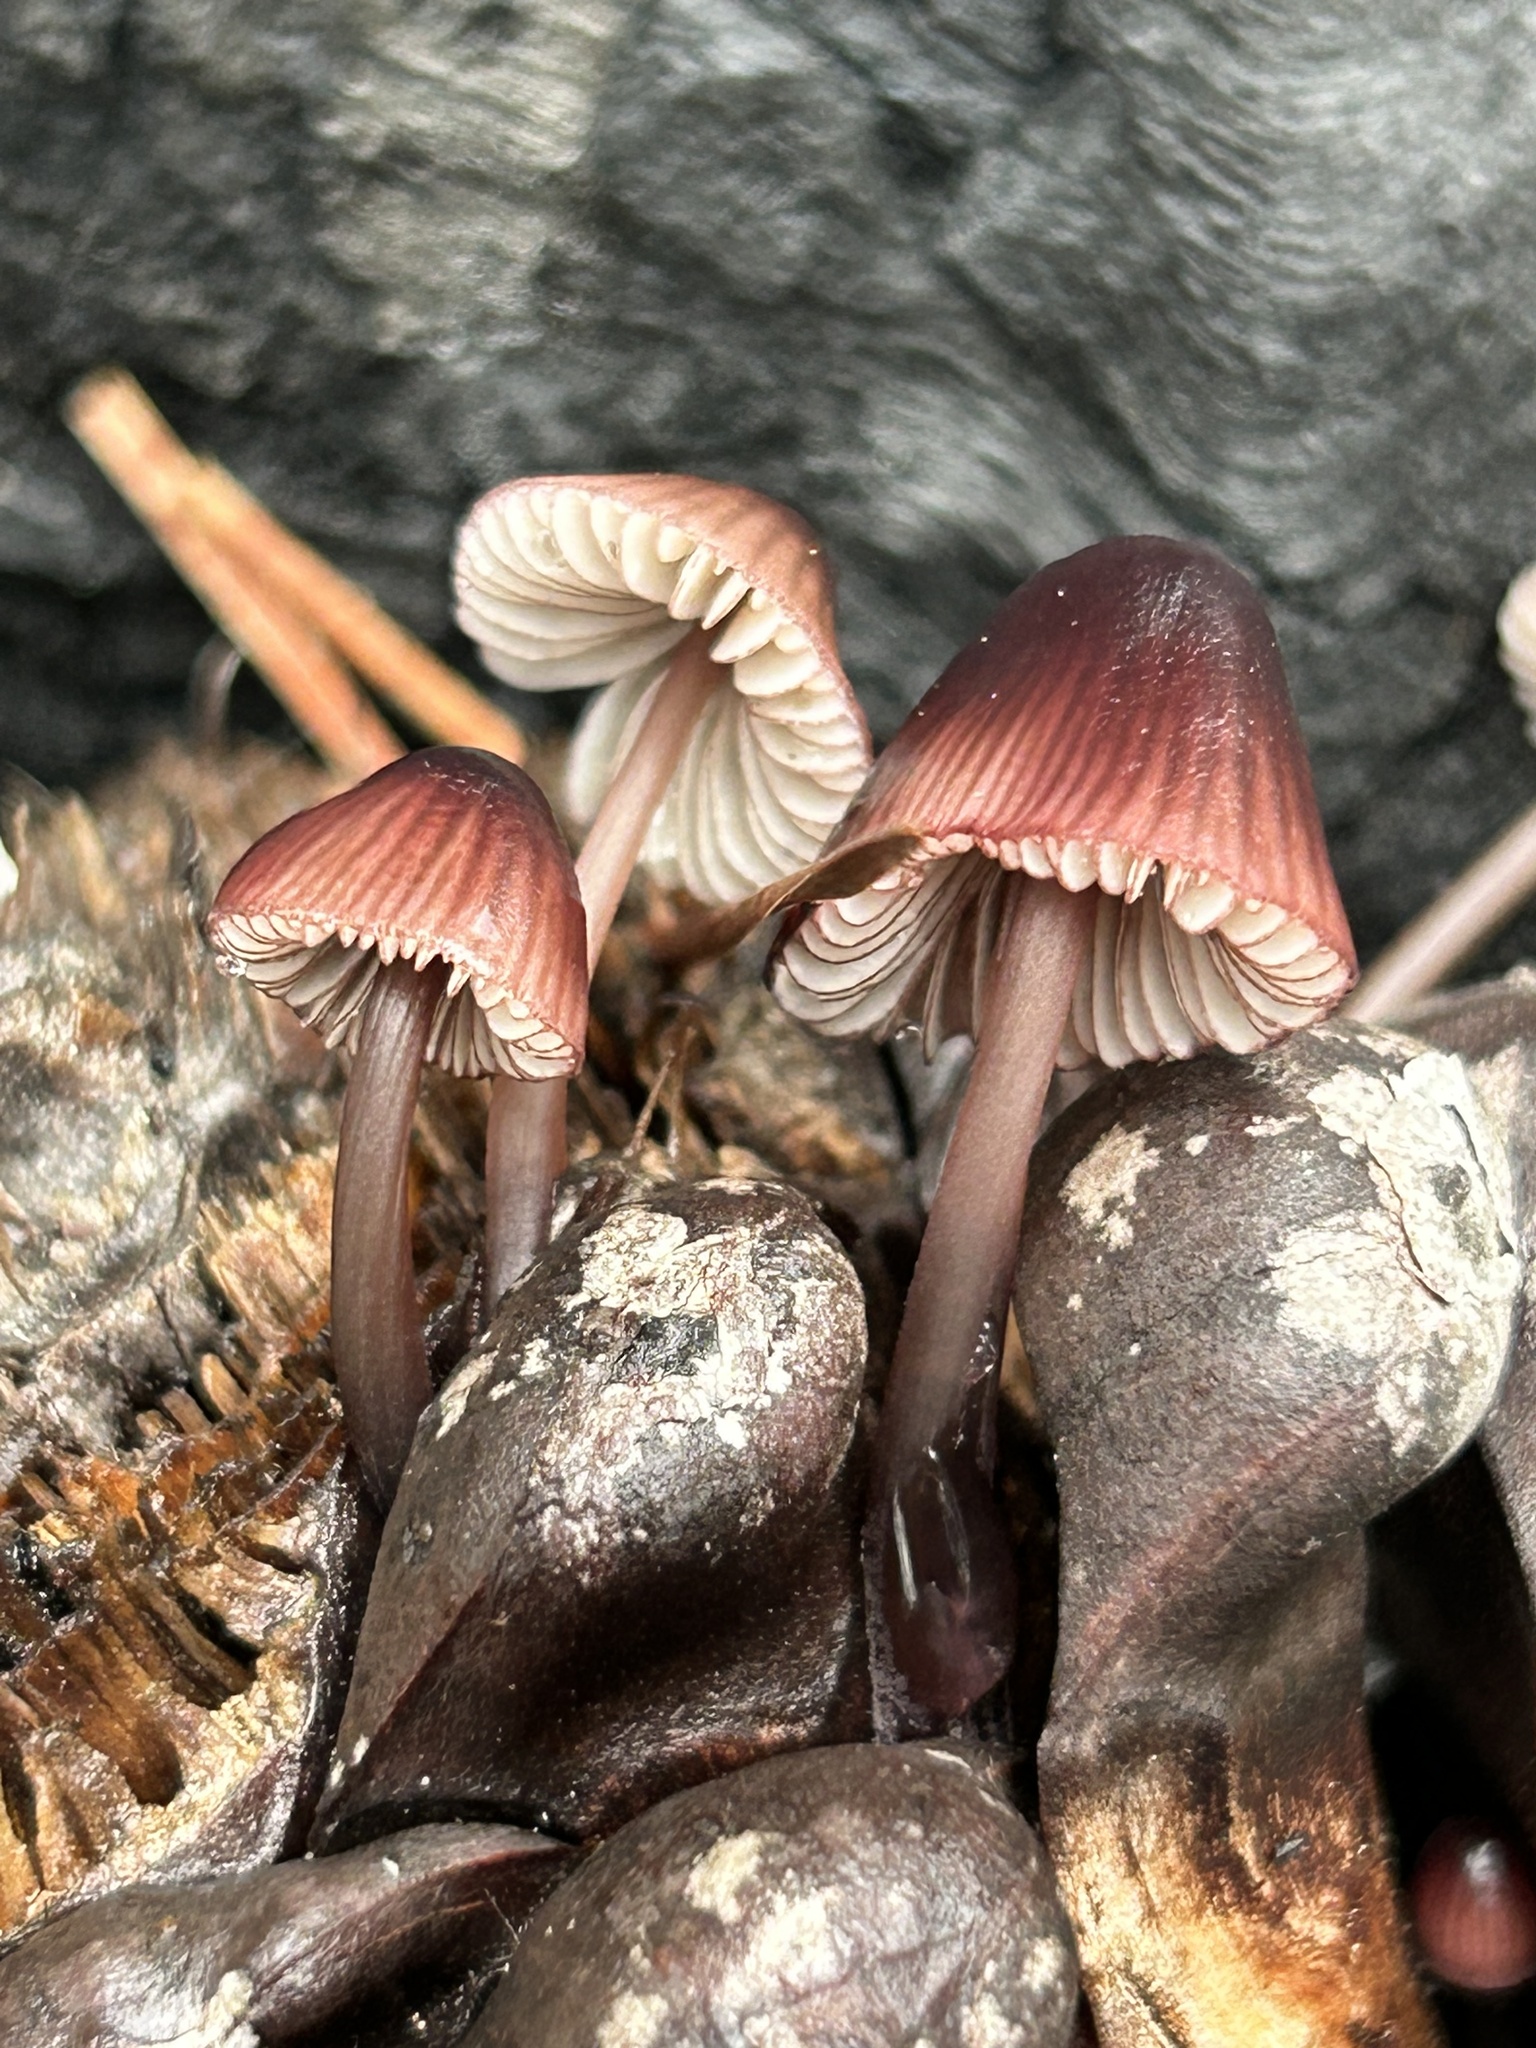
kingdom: Fungi
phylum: Basidiomycota
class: Agaricomycetes
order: Agaricales
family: Mycenaceae
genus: Mycena
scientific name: Mycena purpureofusca
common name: Purple edge bonnet
